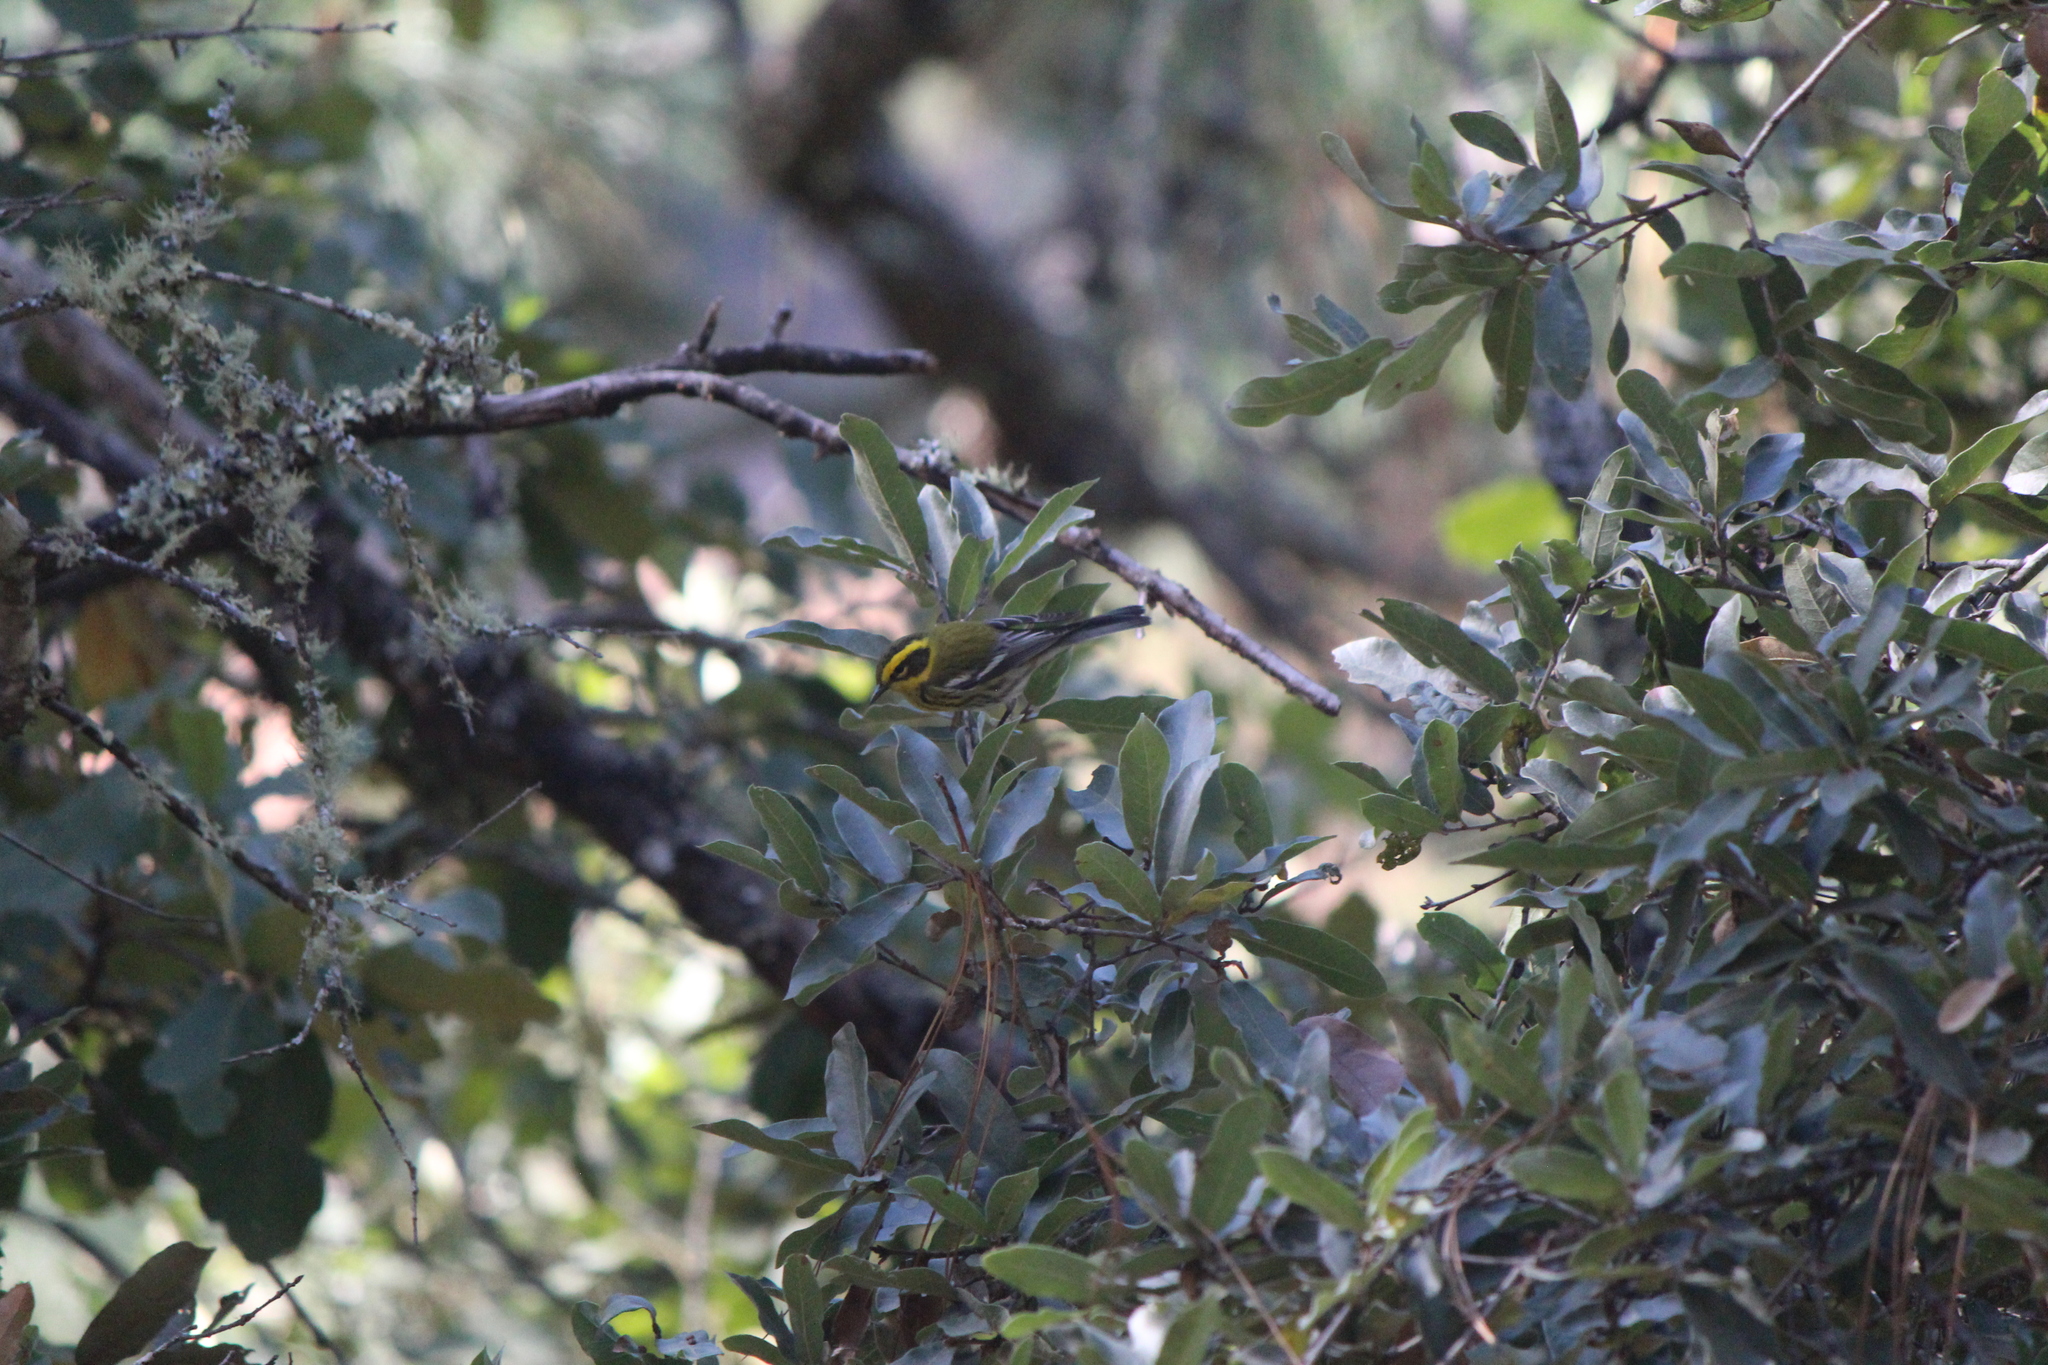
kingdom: Animalia
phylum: Chordata
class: Aves
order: Passeriformes
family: Parulidae
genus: Setophaga
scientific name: Setophaga townsendi
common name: Townsend's warbler
